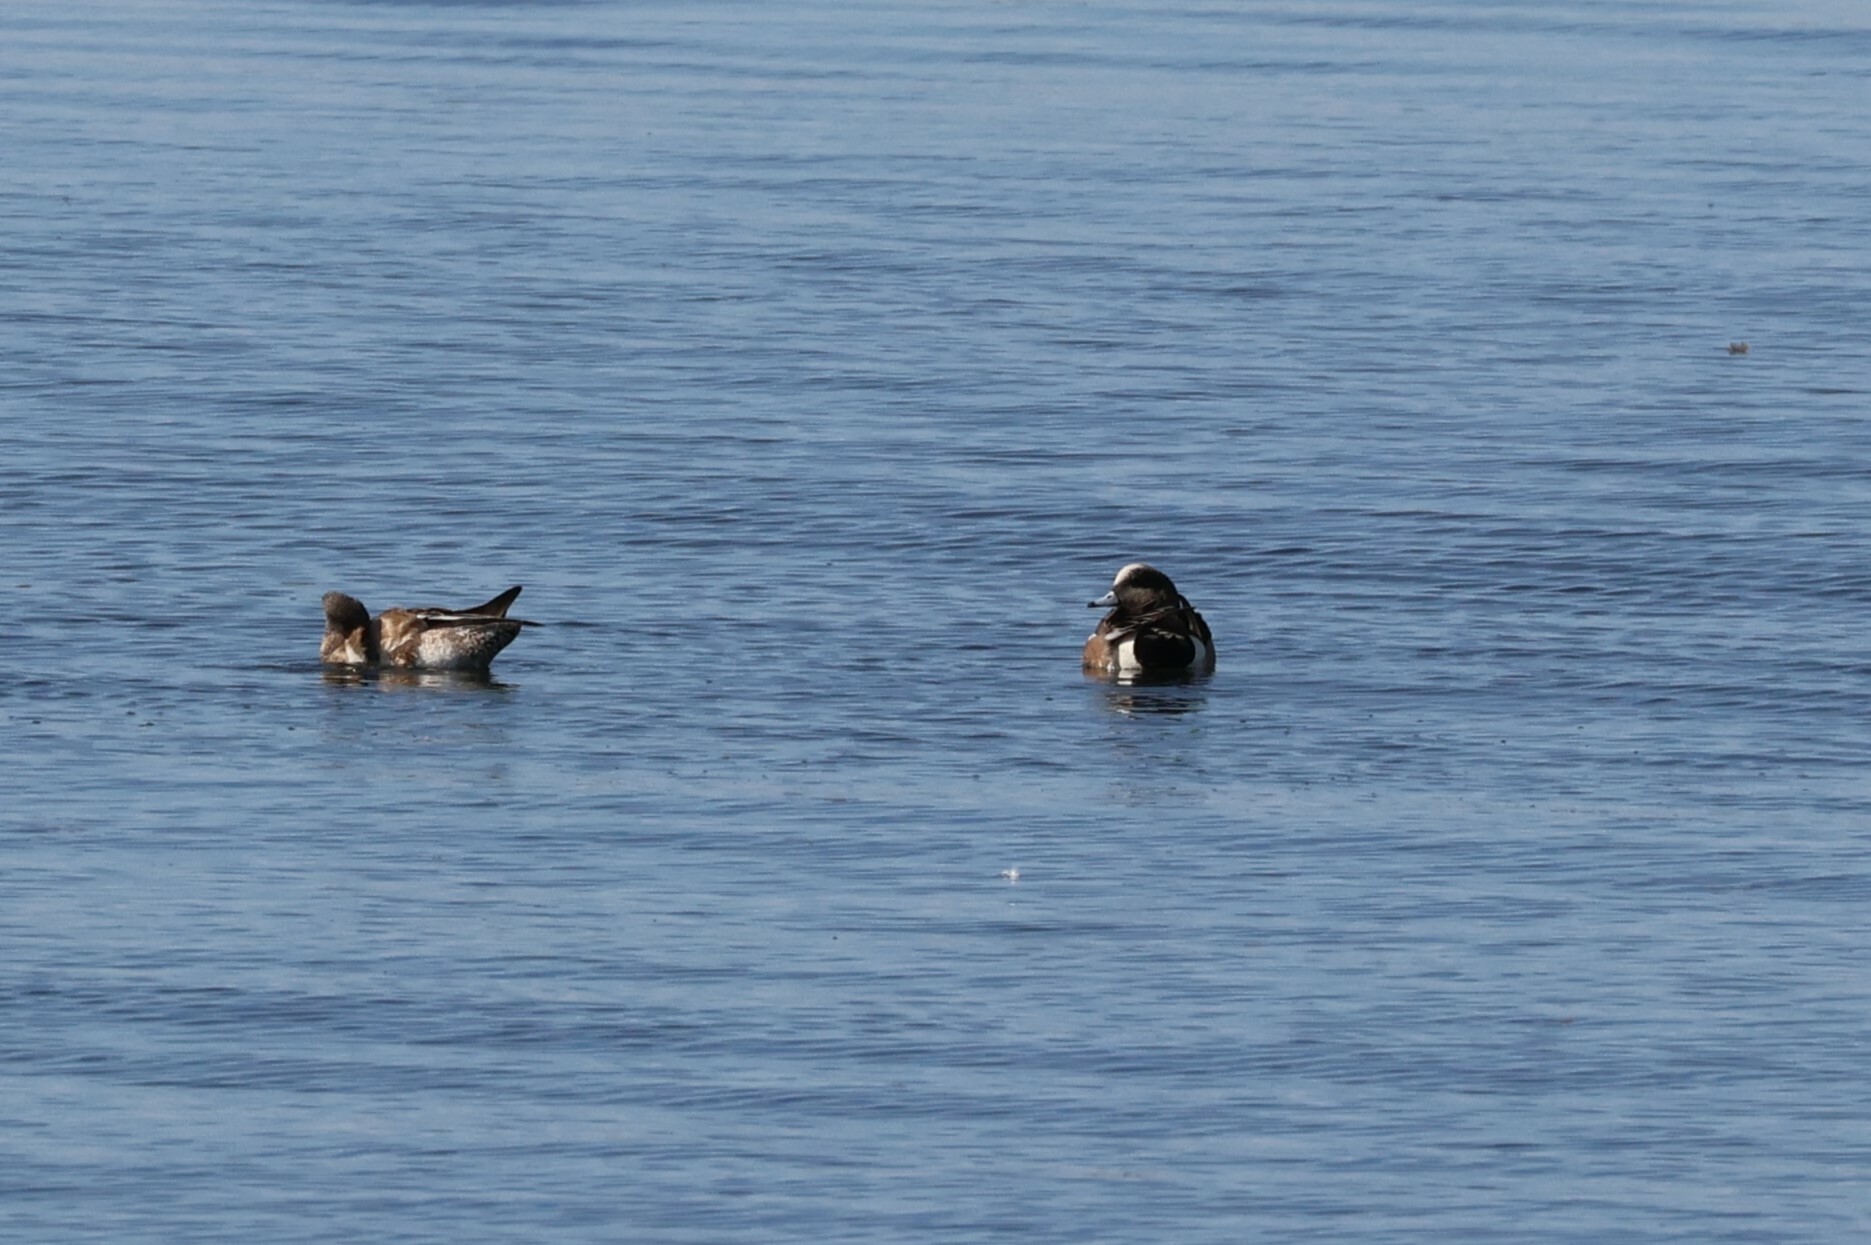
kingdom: Animalia
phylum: Chordata
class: Aves
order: Anseriformes
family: Anatidae
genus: Mareca
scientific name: Mareca americana
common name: American wigeon
